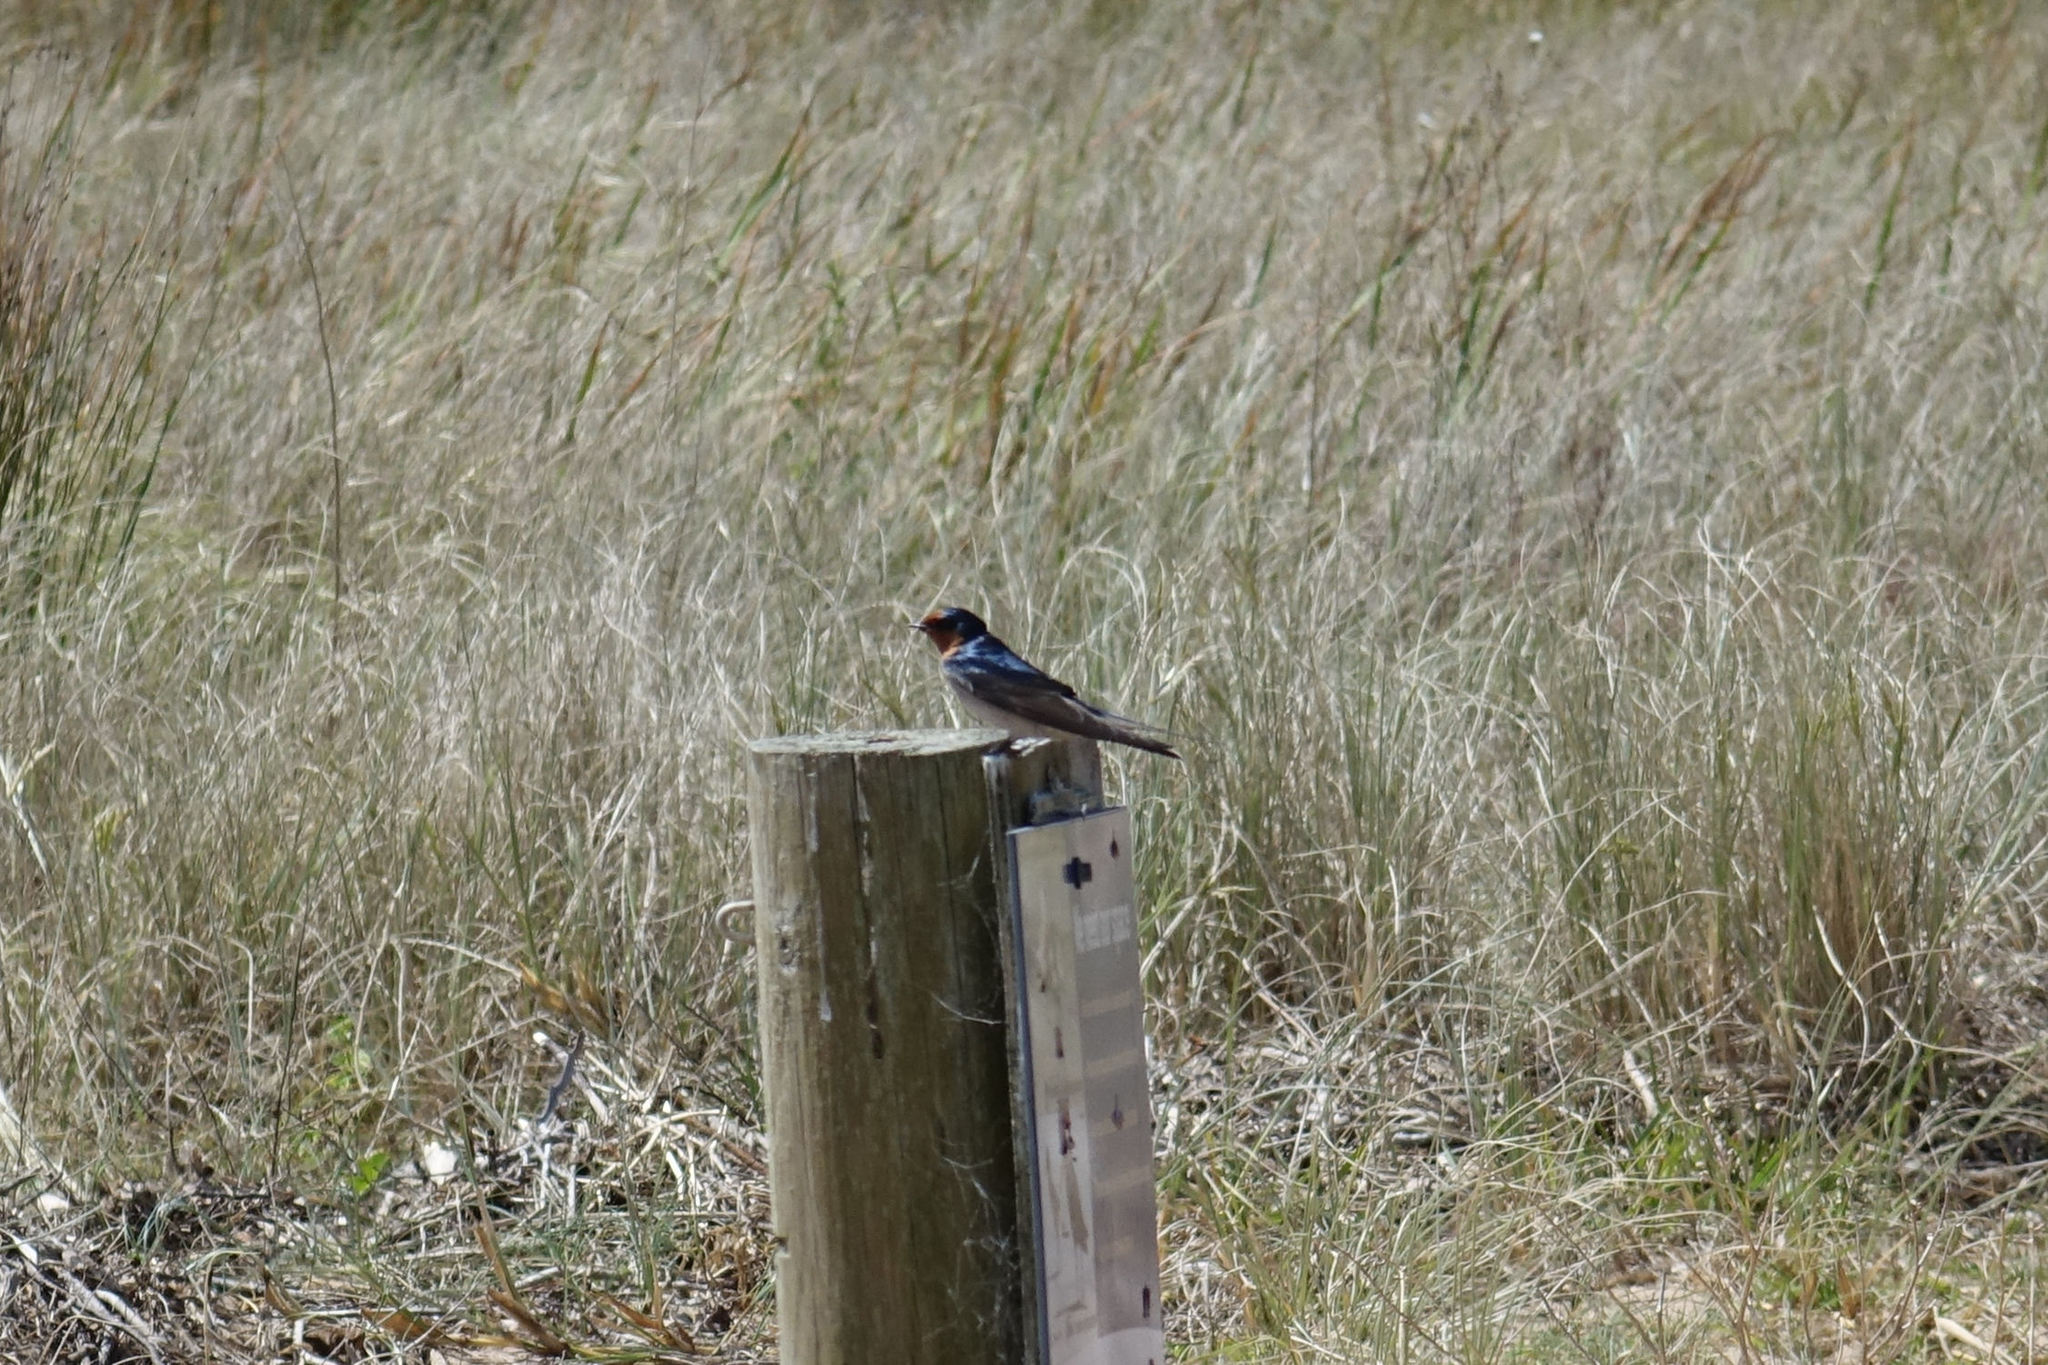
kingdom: Animalia
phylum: Chordata
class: Aves
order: Passeriformes
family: Hirundinidae
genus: Hirundo
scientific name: Hirundo neoxena
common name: Welcome swallow
